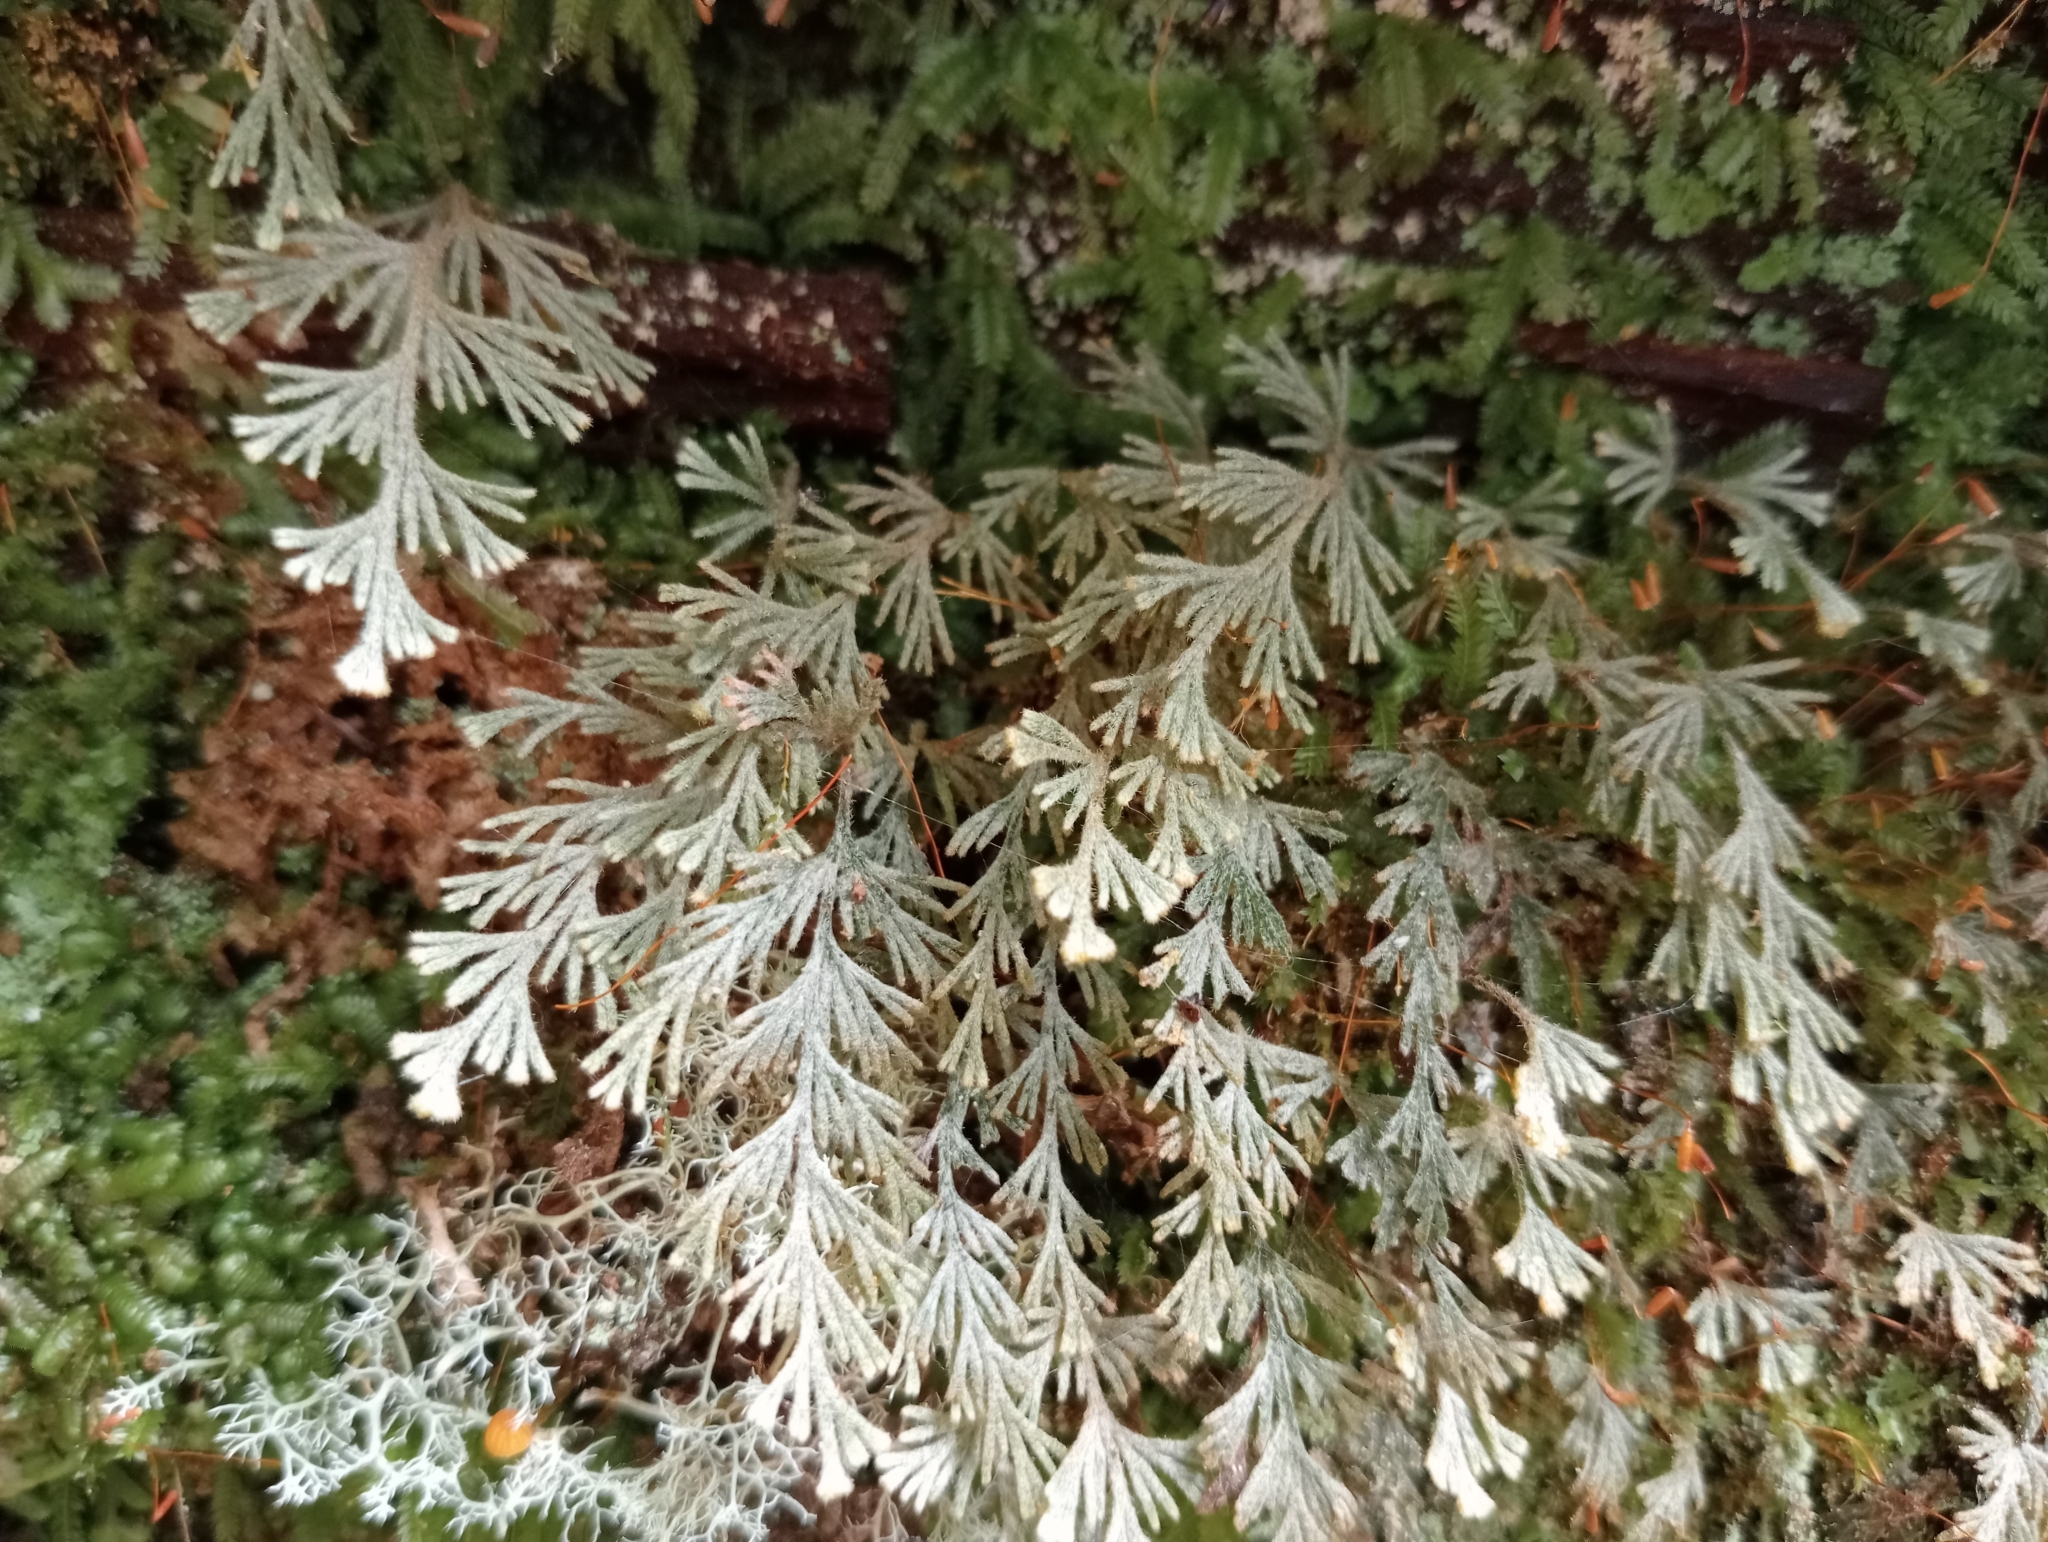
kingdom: Plantae
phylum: Tracheophyta
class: Polypodiopsida
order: Hymenophyllales
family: Hymenophyllaceae
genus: Hymenophyllum
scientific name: Hymenophyllum malingii
